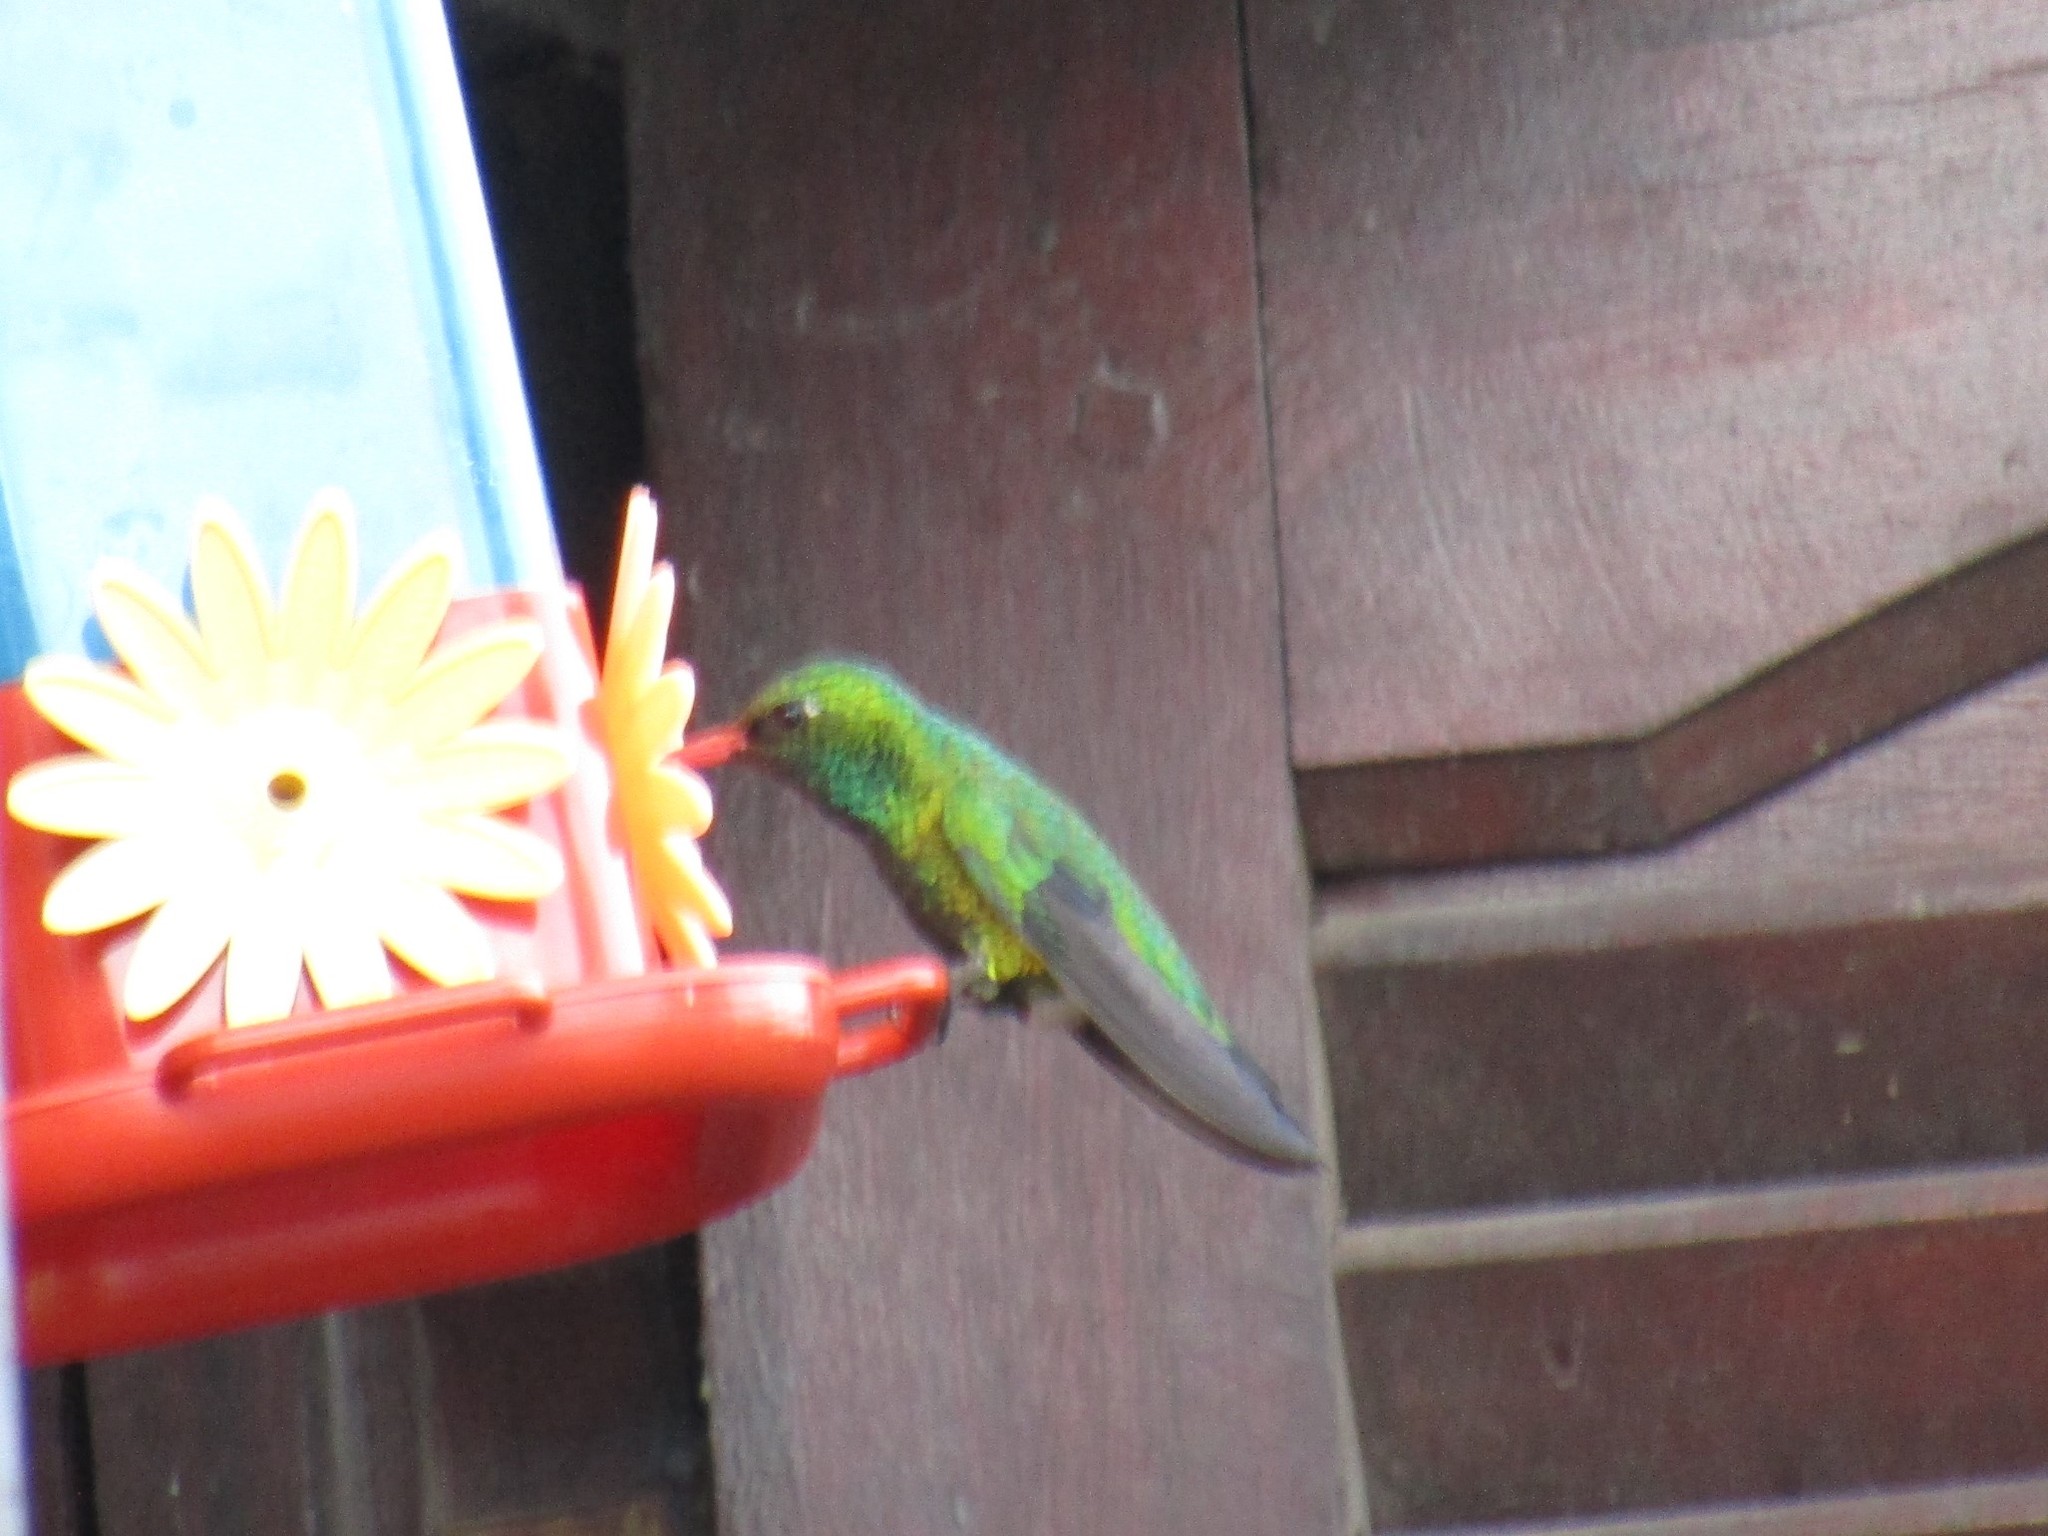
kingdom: Animalia
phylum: Chordata
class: Aves
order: Apodiformes
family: Trochilidae
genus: Chlorostilbon
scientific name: Chlorostilbon lucidus
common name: Glittering-bellied emerald
